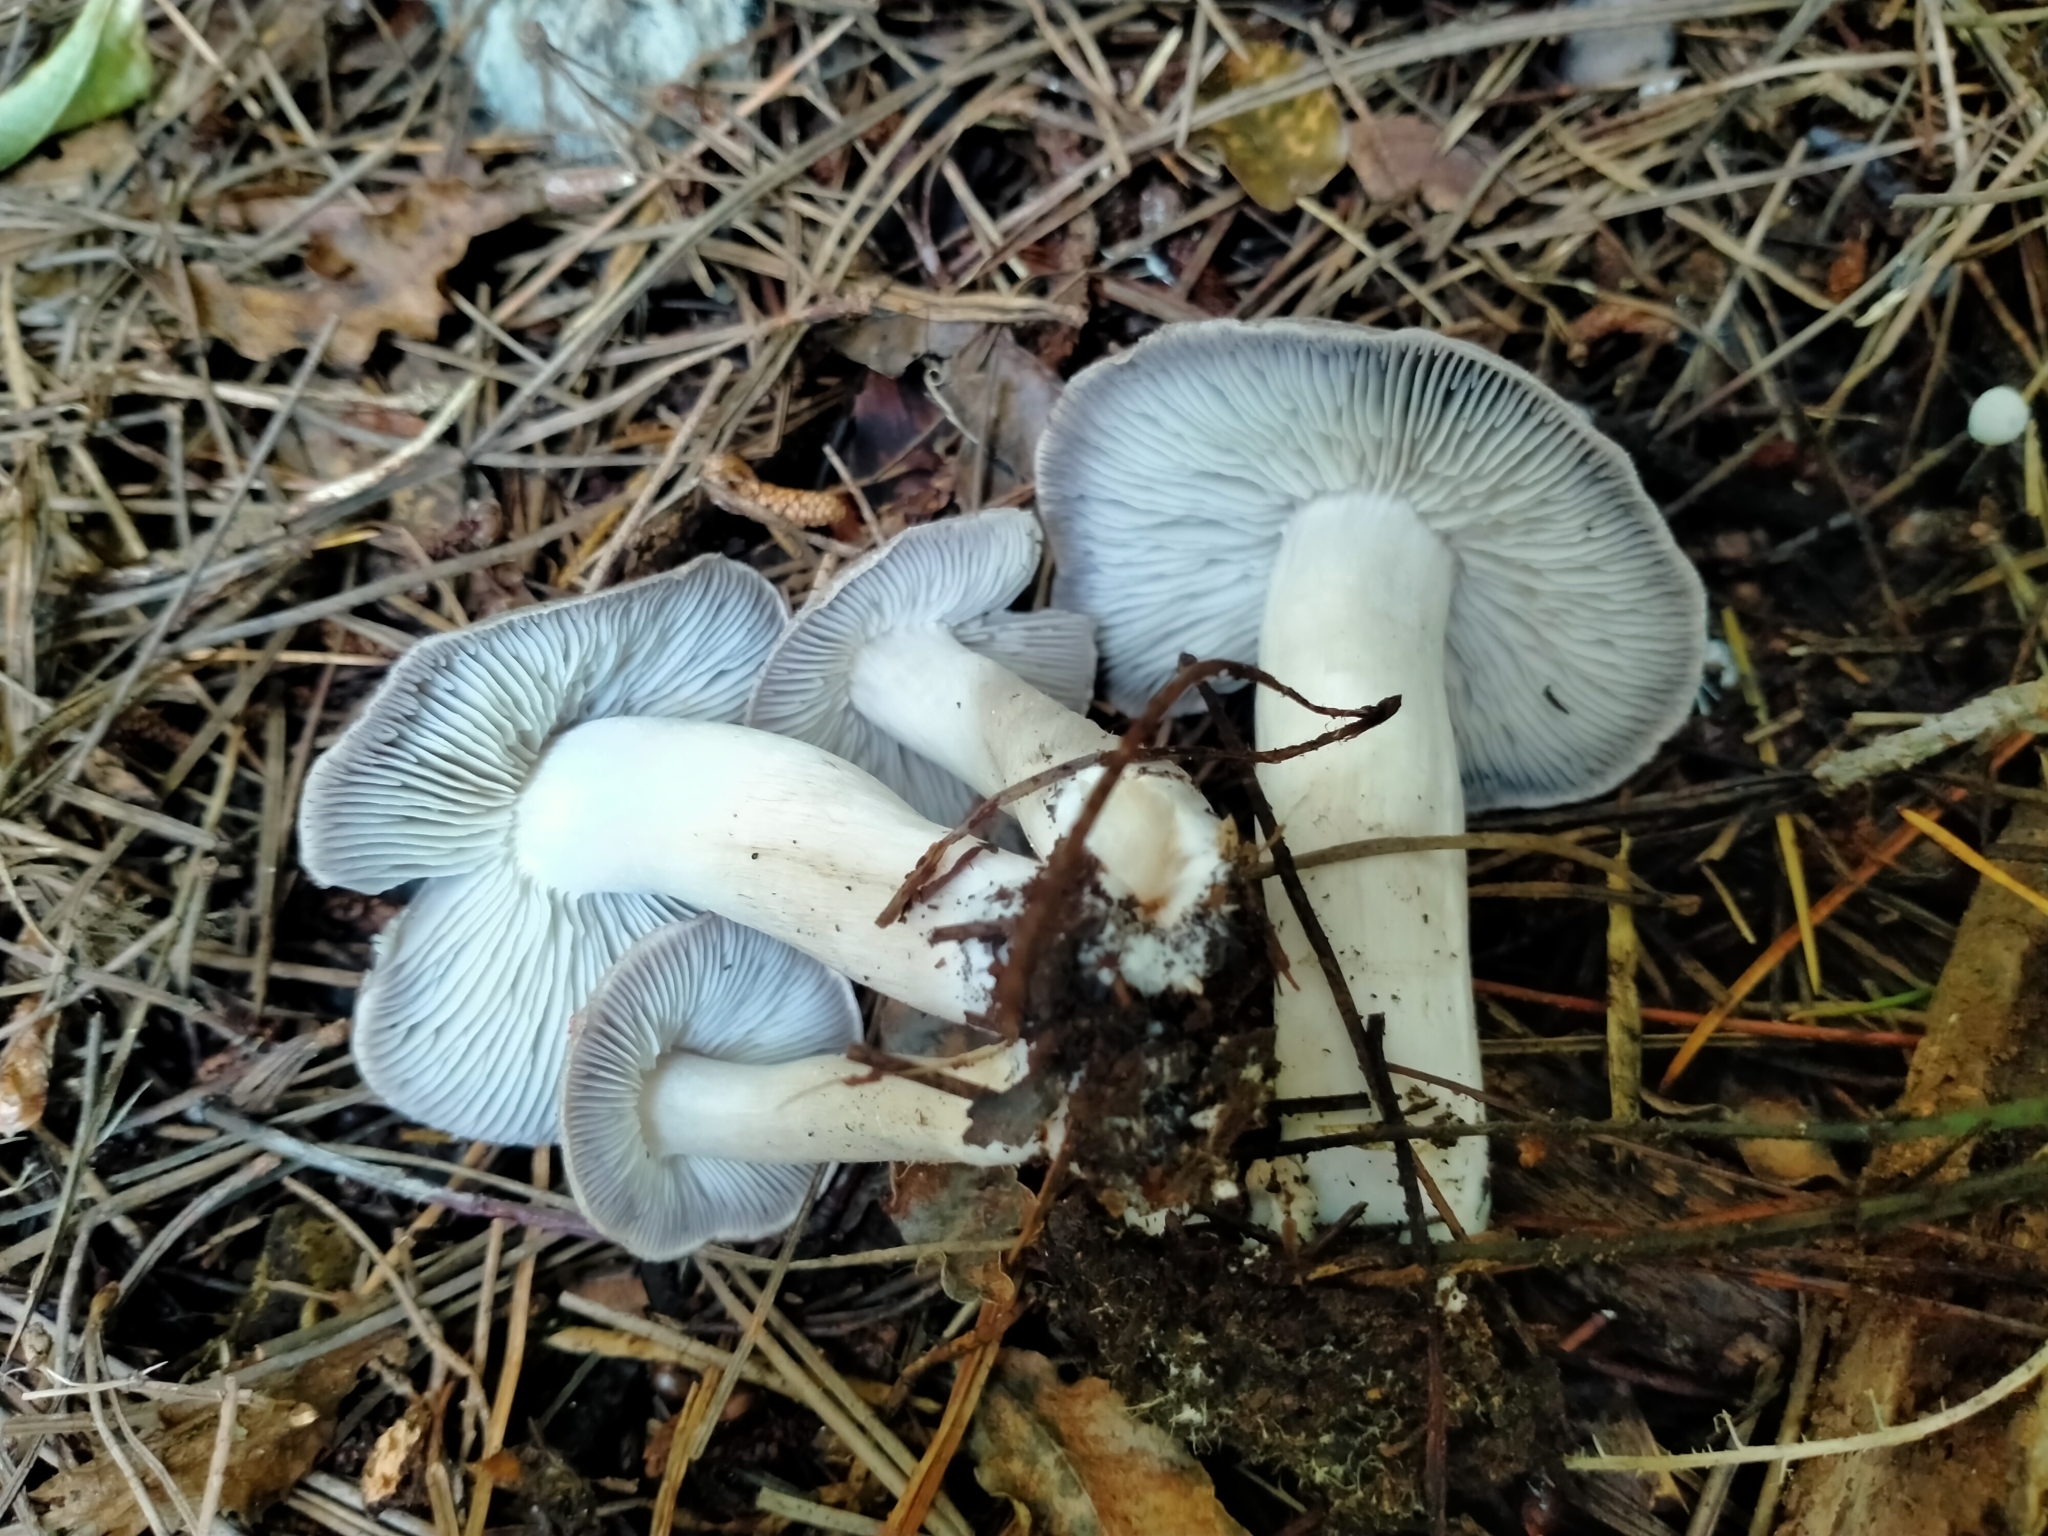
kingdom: Fungi
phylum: Basidiomycota
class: Agaricomycetes
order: Agaricales
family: Tricholomataceae
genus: Tricholoma
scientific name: Tricholoma terreum
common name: Grey knight
